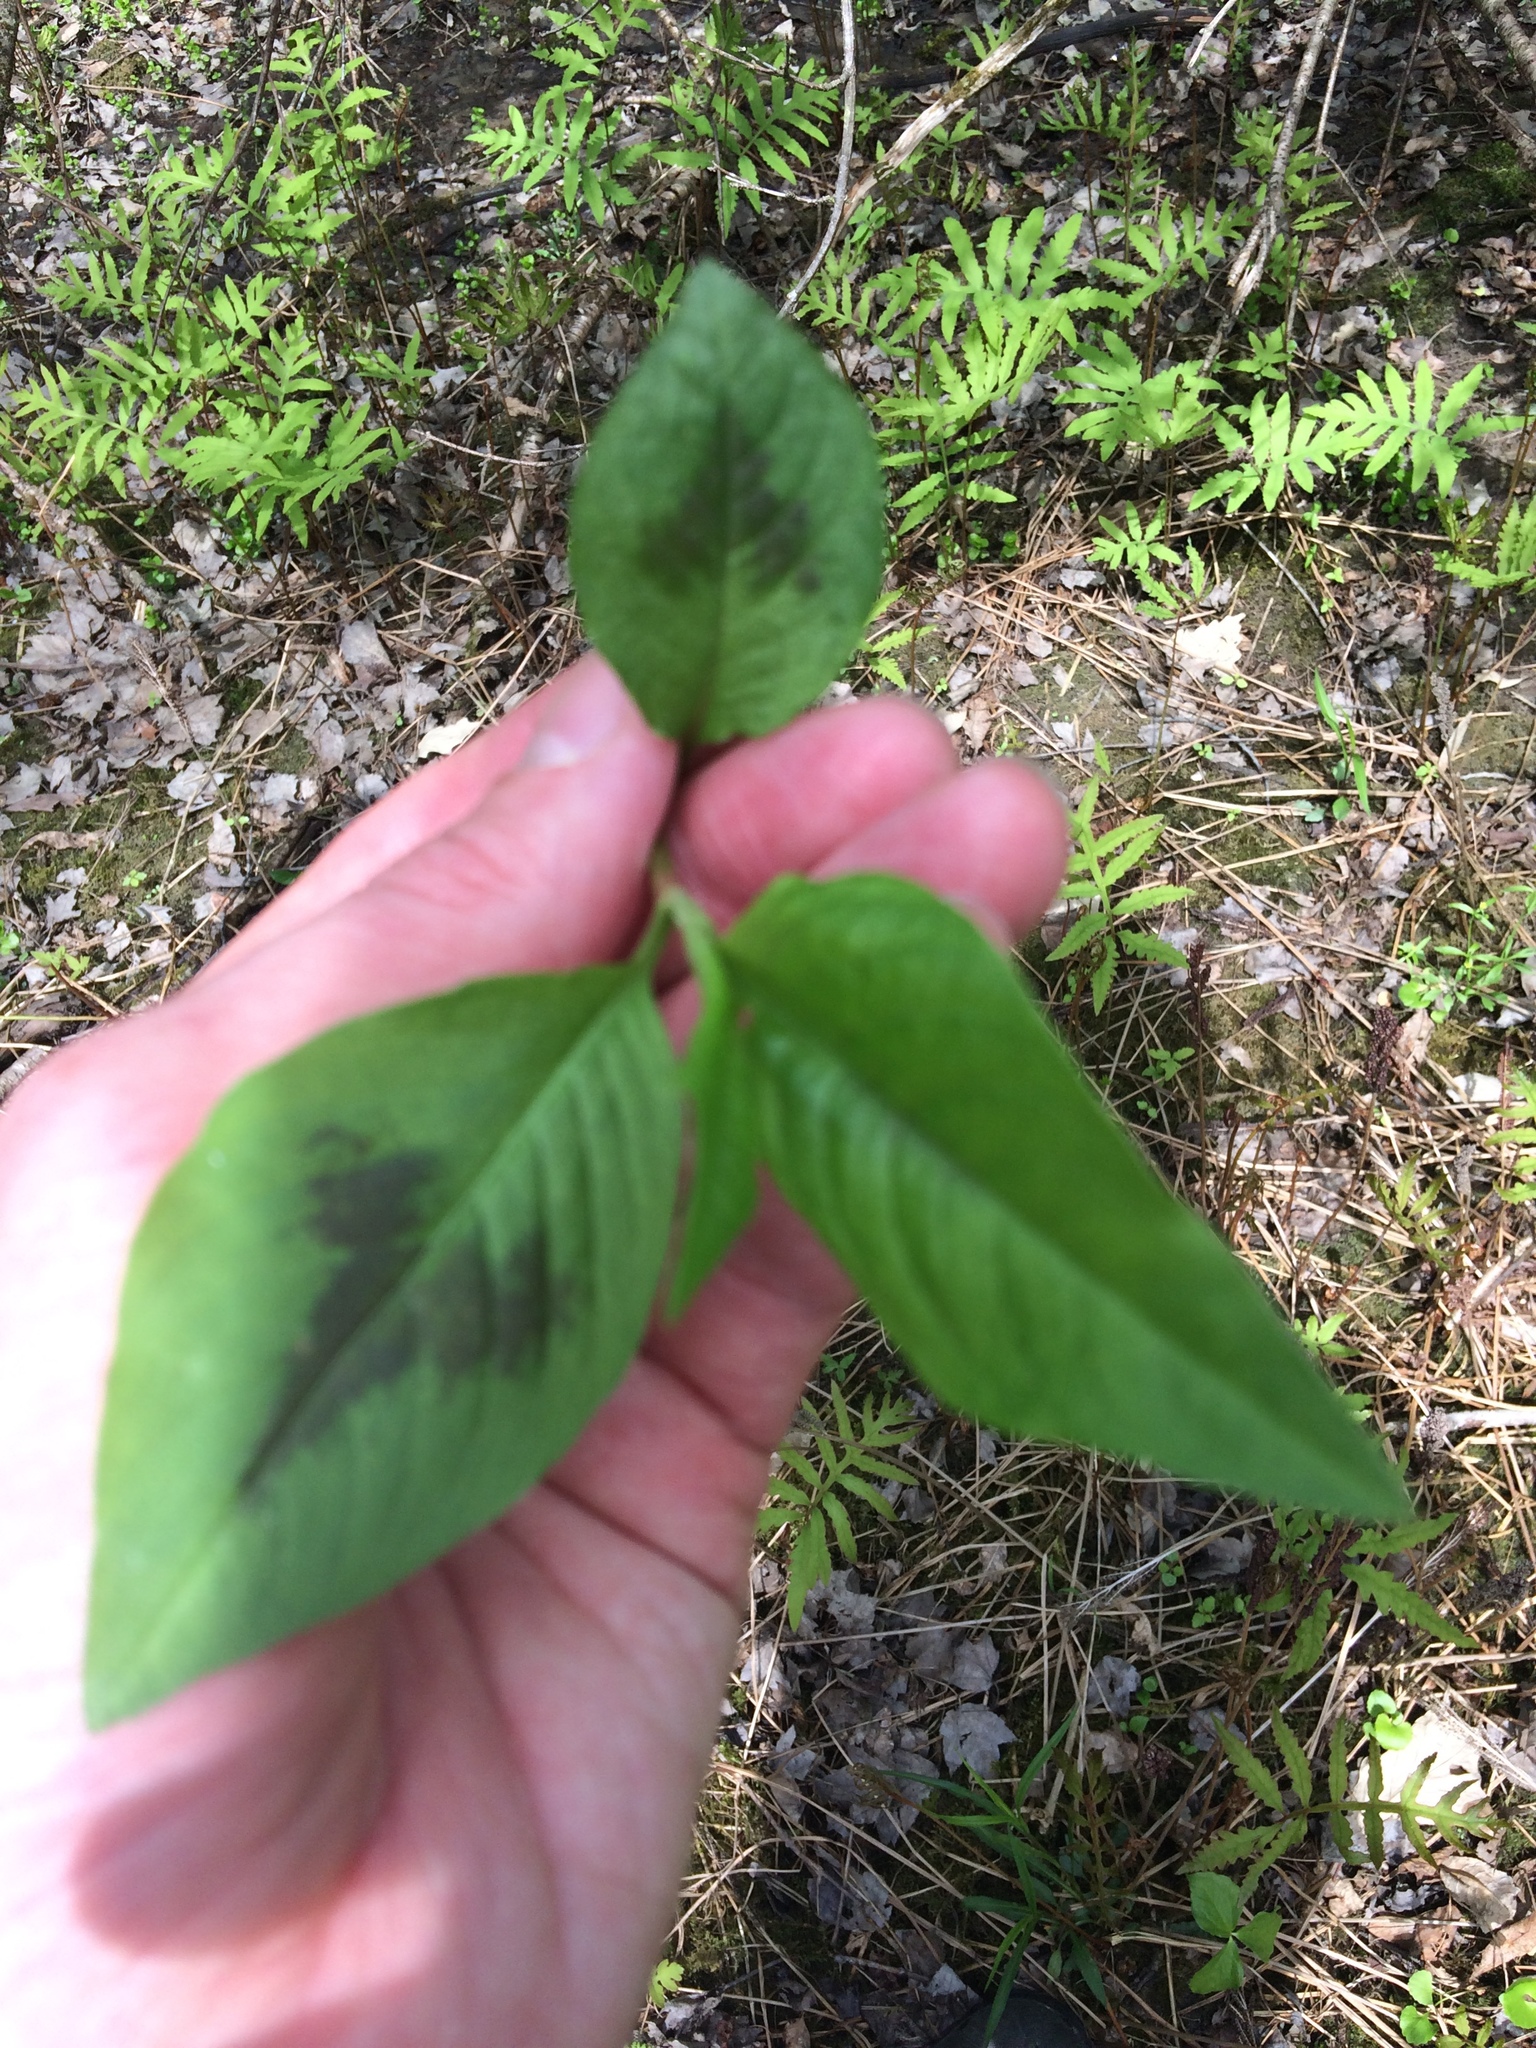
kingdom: Plantae
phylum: Tracheophyta
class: Magnoliopsida
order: Caryophyllales
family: Polygonaceae
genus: Persicaria
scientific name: Persicaria virginiana
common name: Jumpseed
